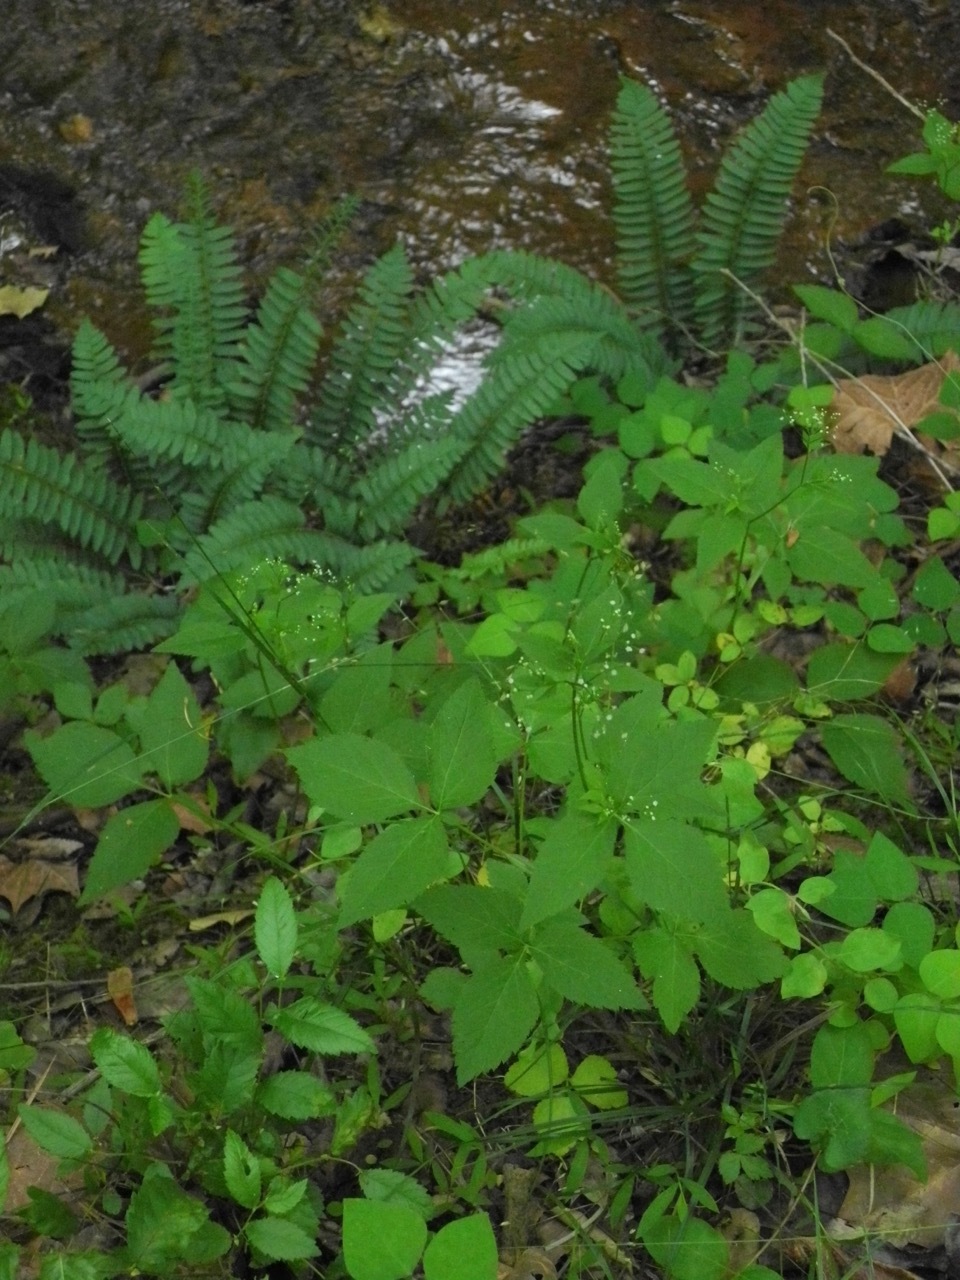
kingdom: Plantae
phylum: Tracheophyta
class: Magnoliopsida
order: Apiales
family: Apiaceae
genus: Cryptotaenia
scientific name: Cryptotaenia canadensis
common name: Honewort
